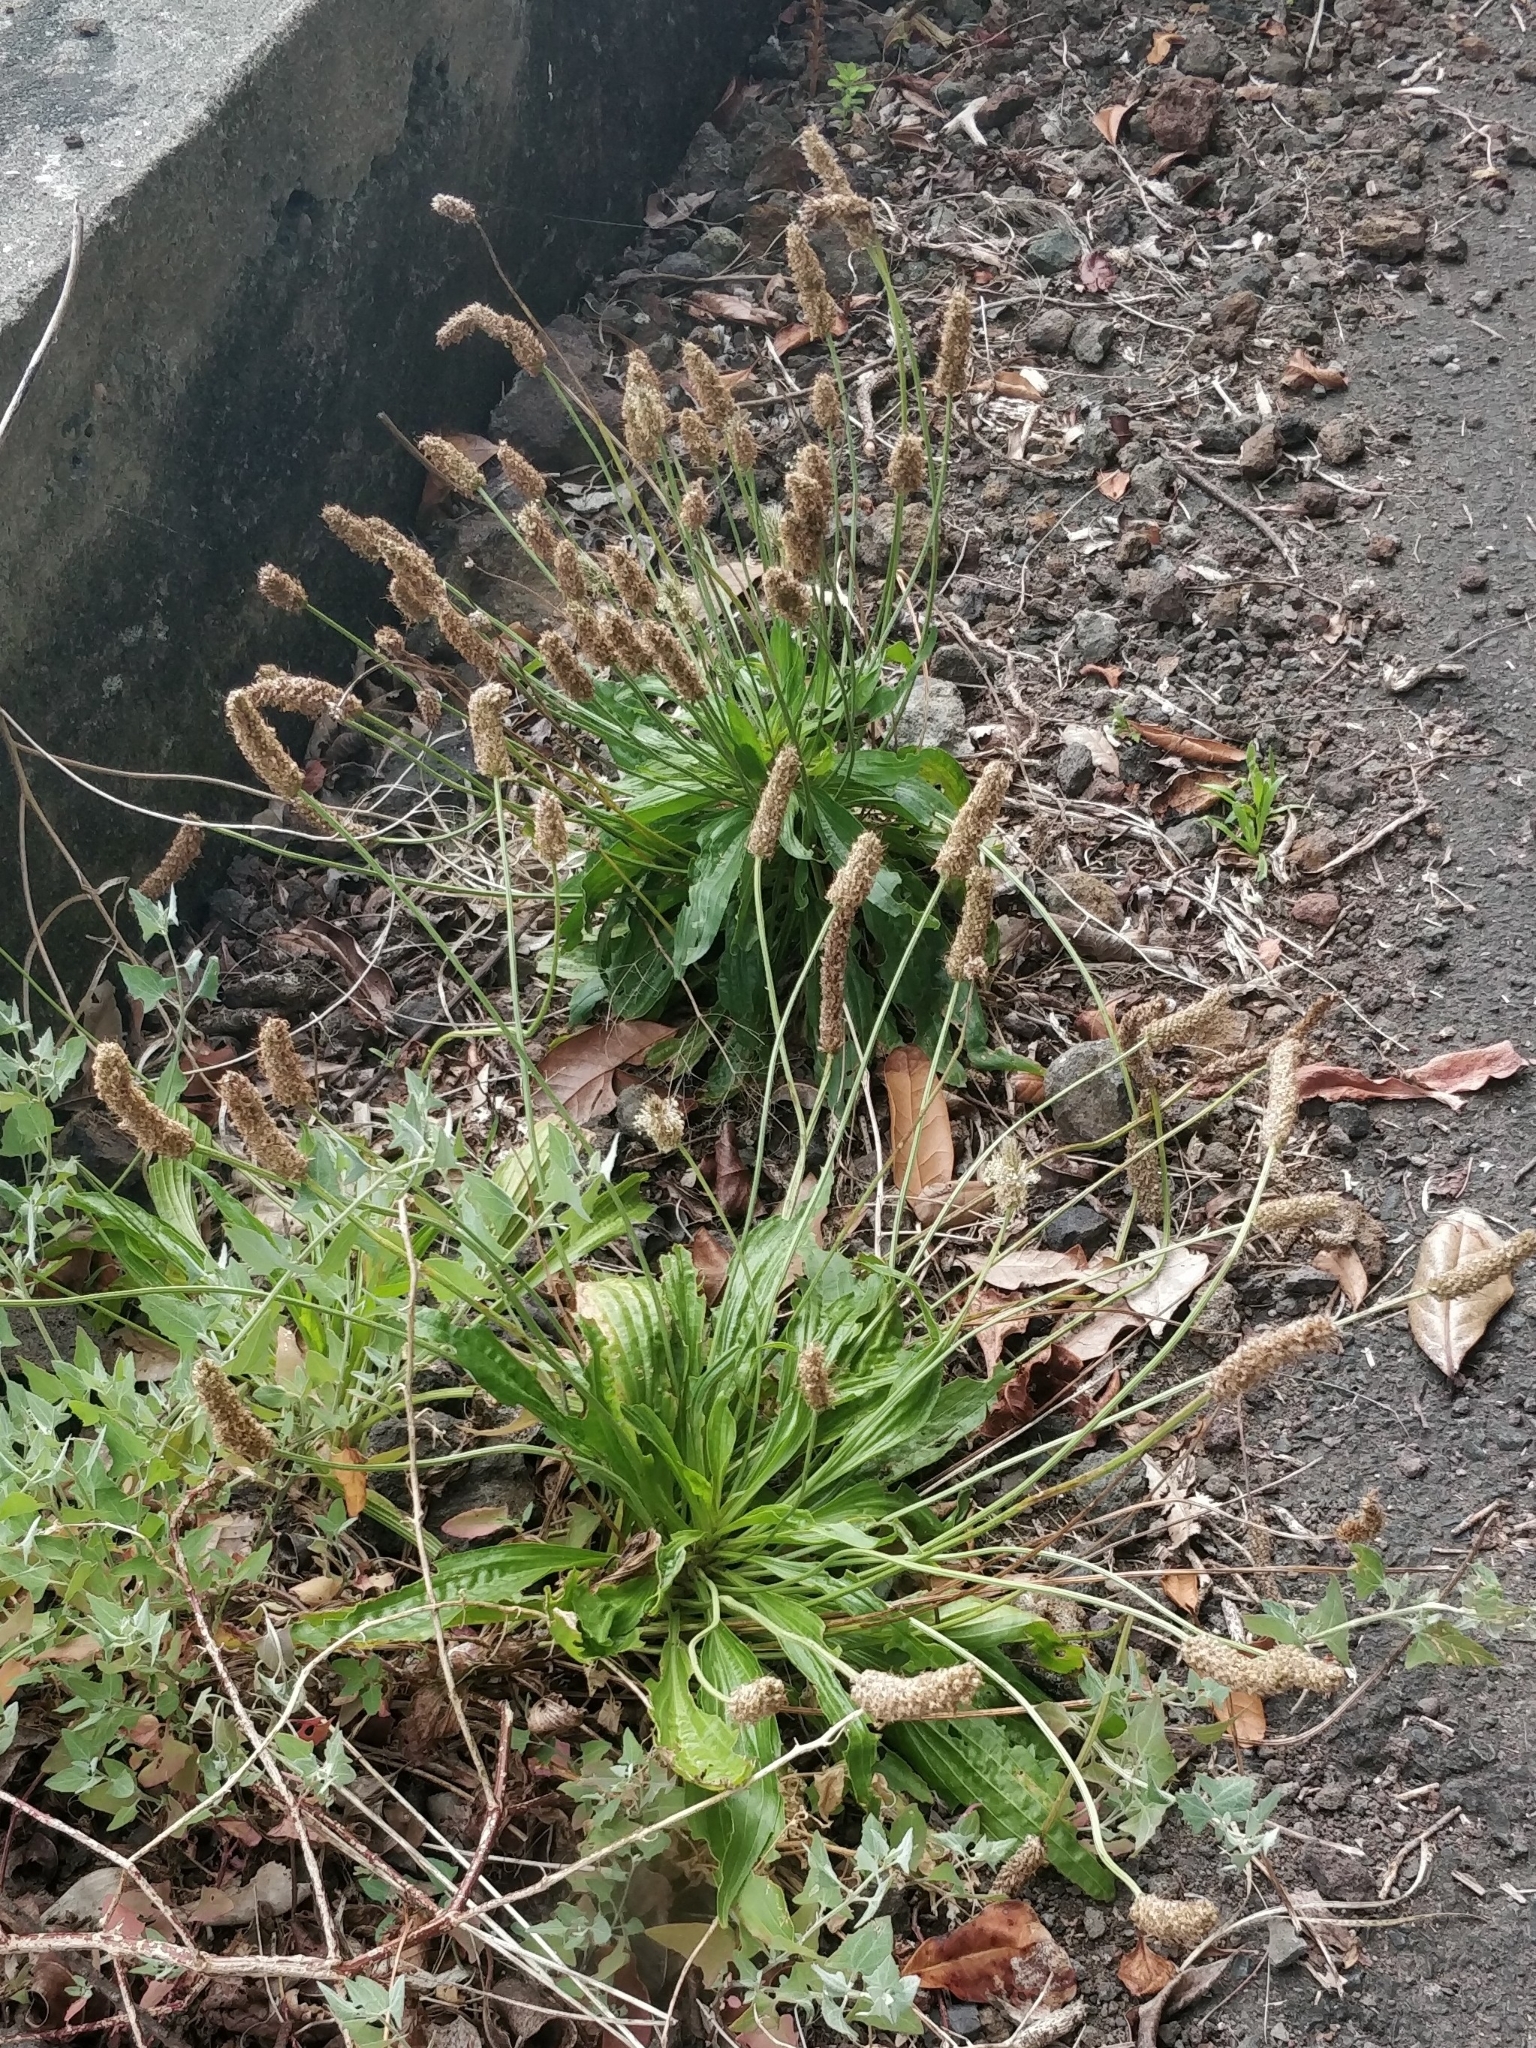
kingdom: Plantae
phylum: Tracheophyta
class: Magnoliopsida
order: Lamiales
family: Plantaginaceae
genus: Plantago
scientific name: Plantago lanceolata
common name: Ribwort plantain
